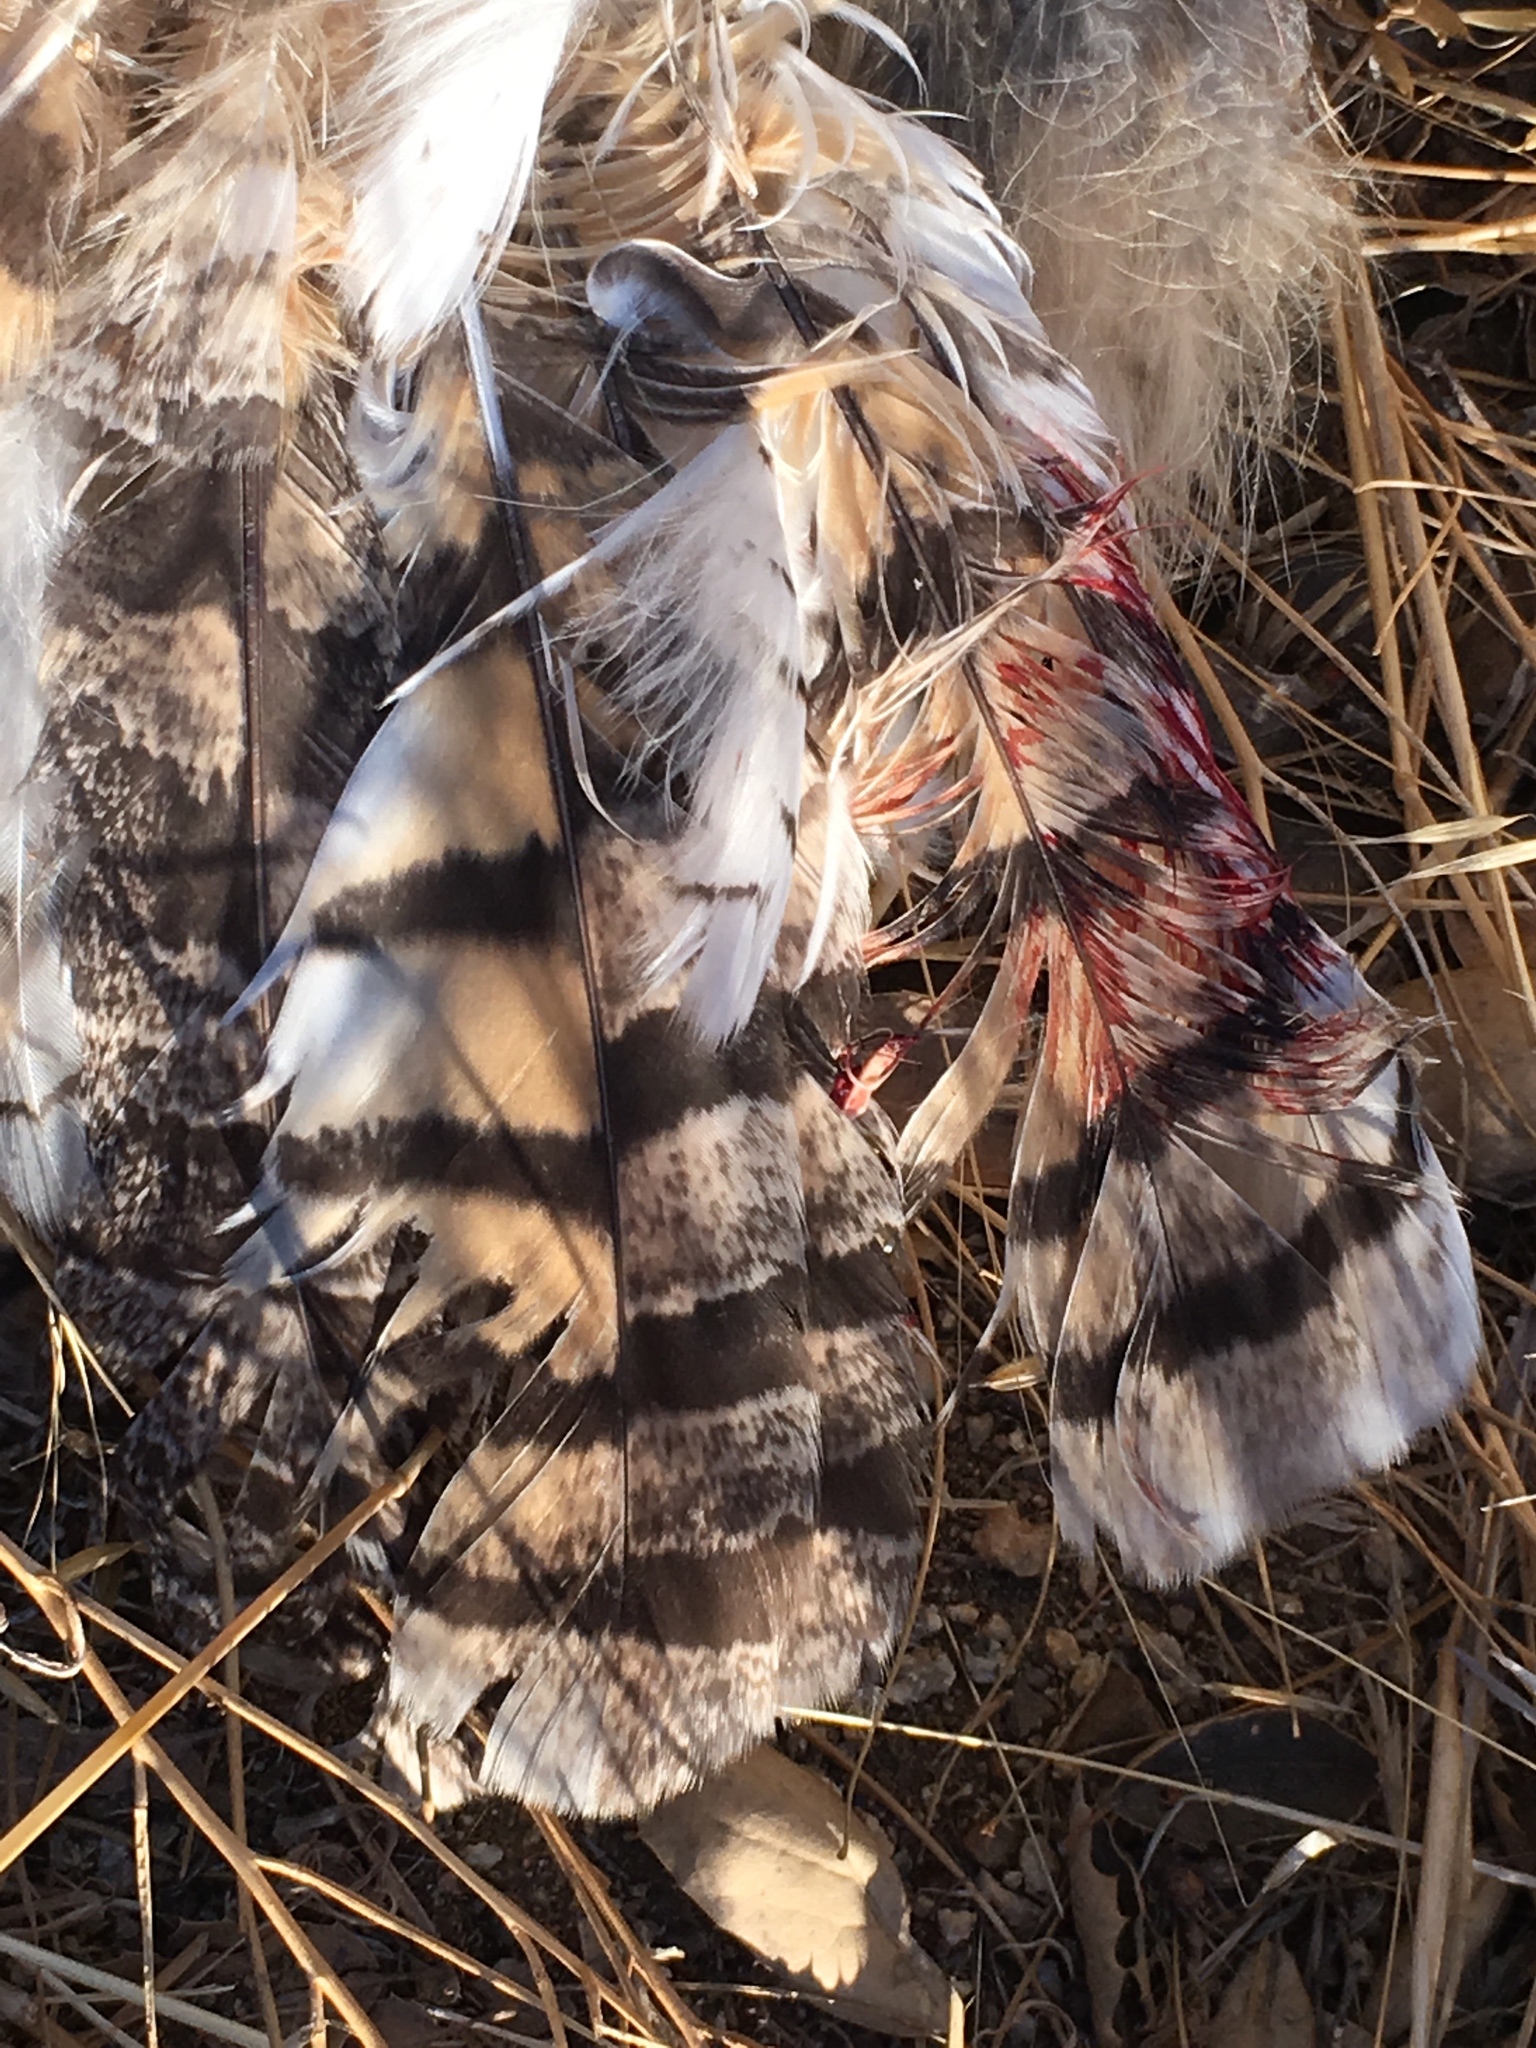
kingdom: Animalia
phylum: Chordata
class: Aves
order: Strigiformes
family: Strigidae
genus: Bubo
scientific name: Bubo virginianus
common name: Great horned owl
